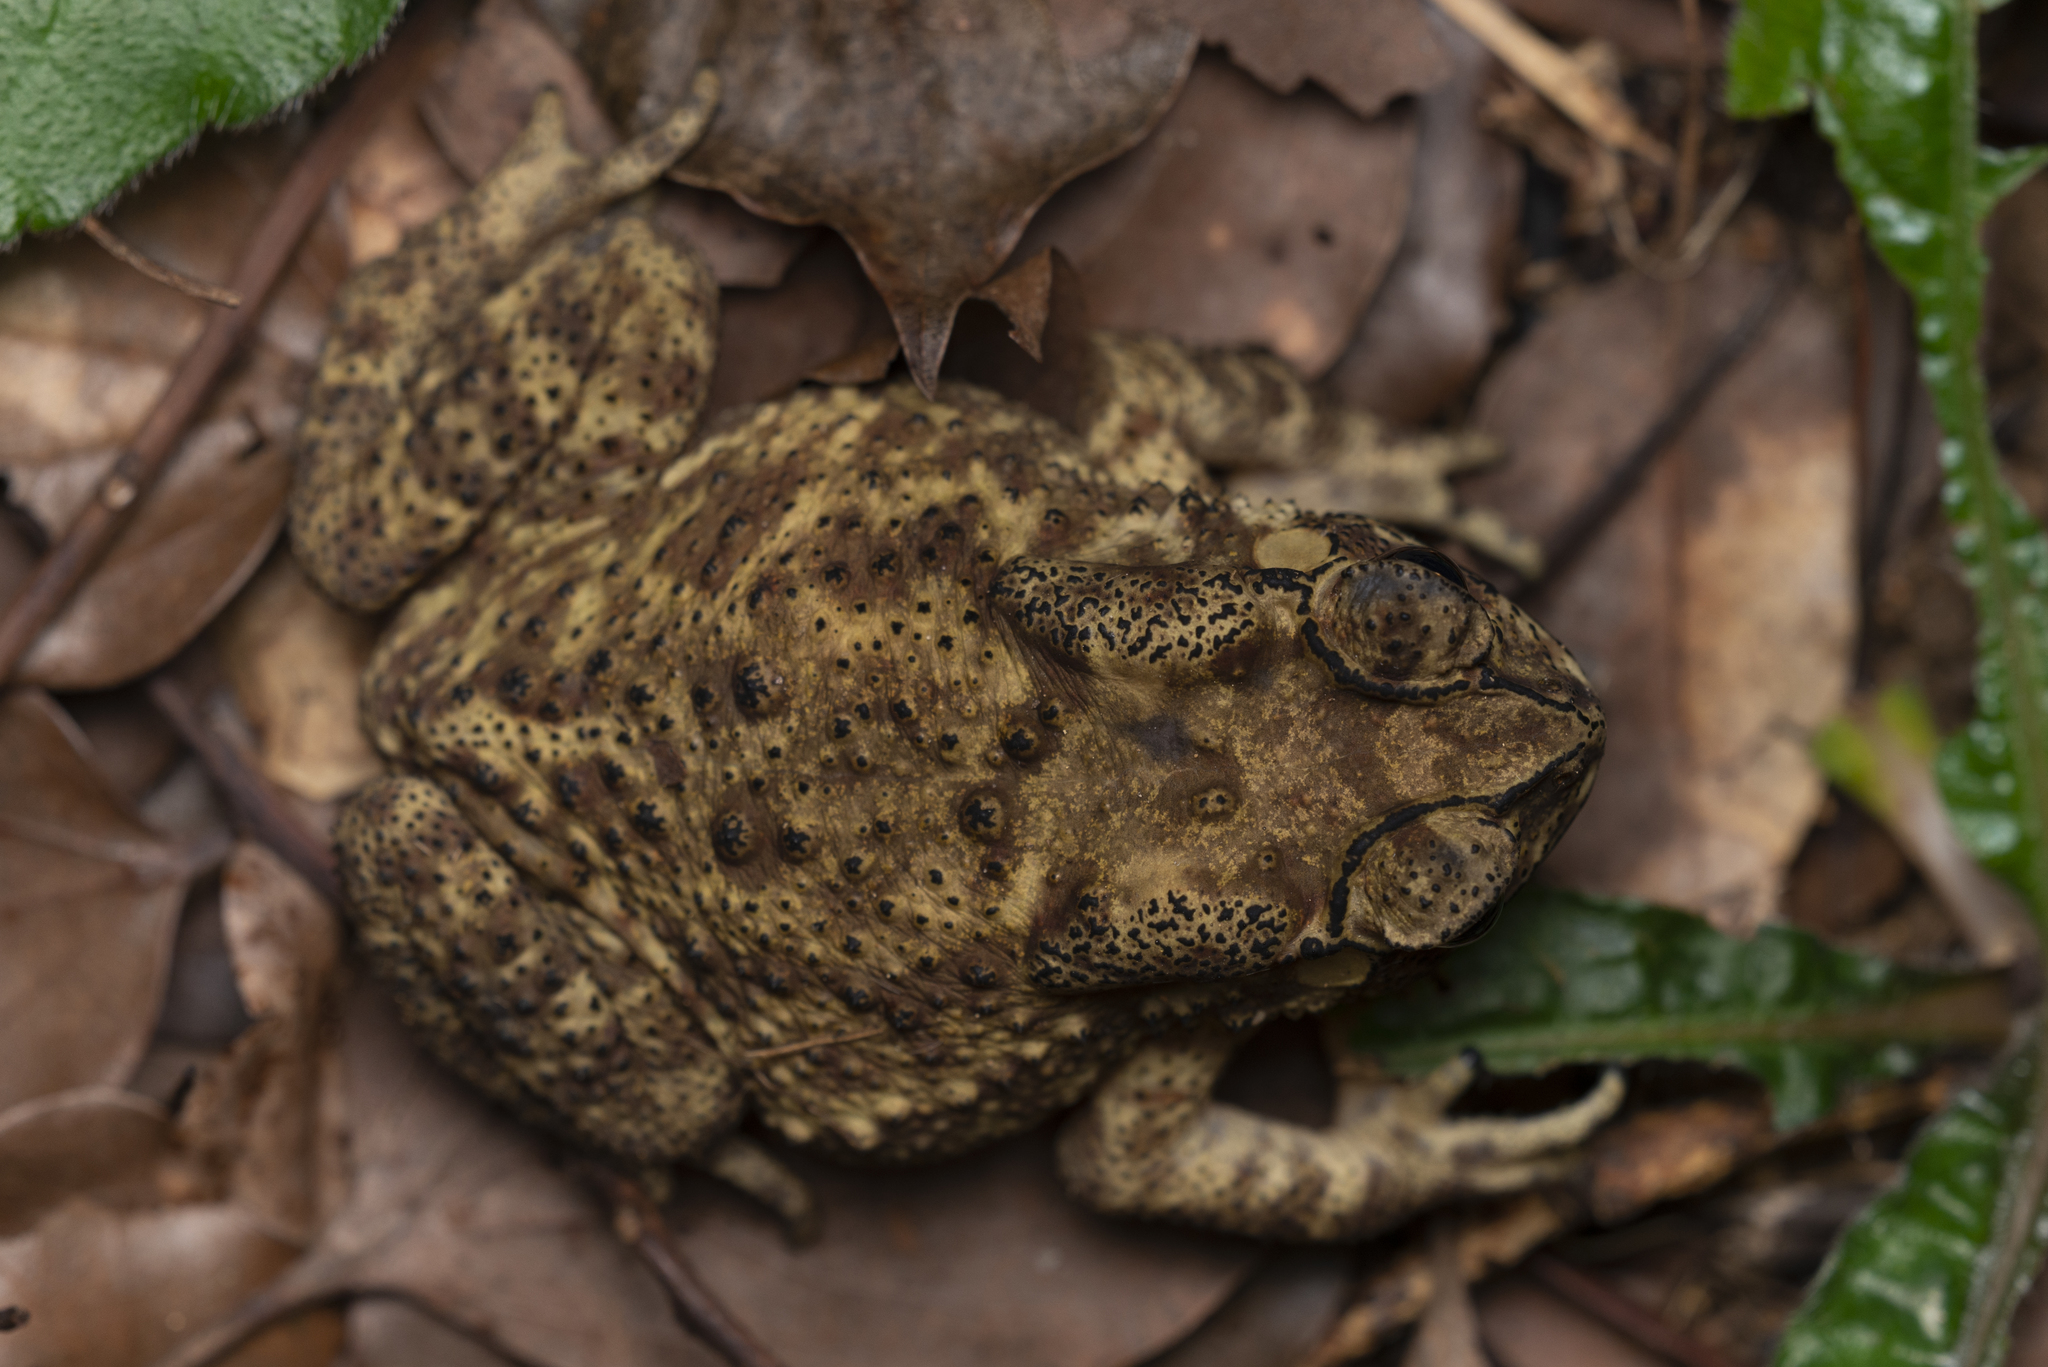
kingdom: Animalia
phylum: Chordata
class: Amphibia
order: Anura
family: Bufonidae
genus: Duttaphrynus
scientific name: Duttaphrynus melanostictus
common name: Common sunda toad
